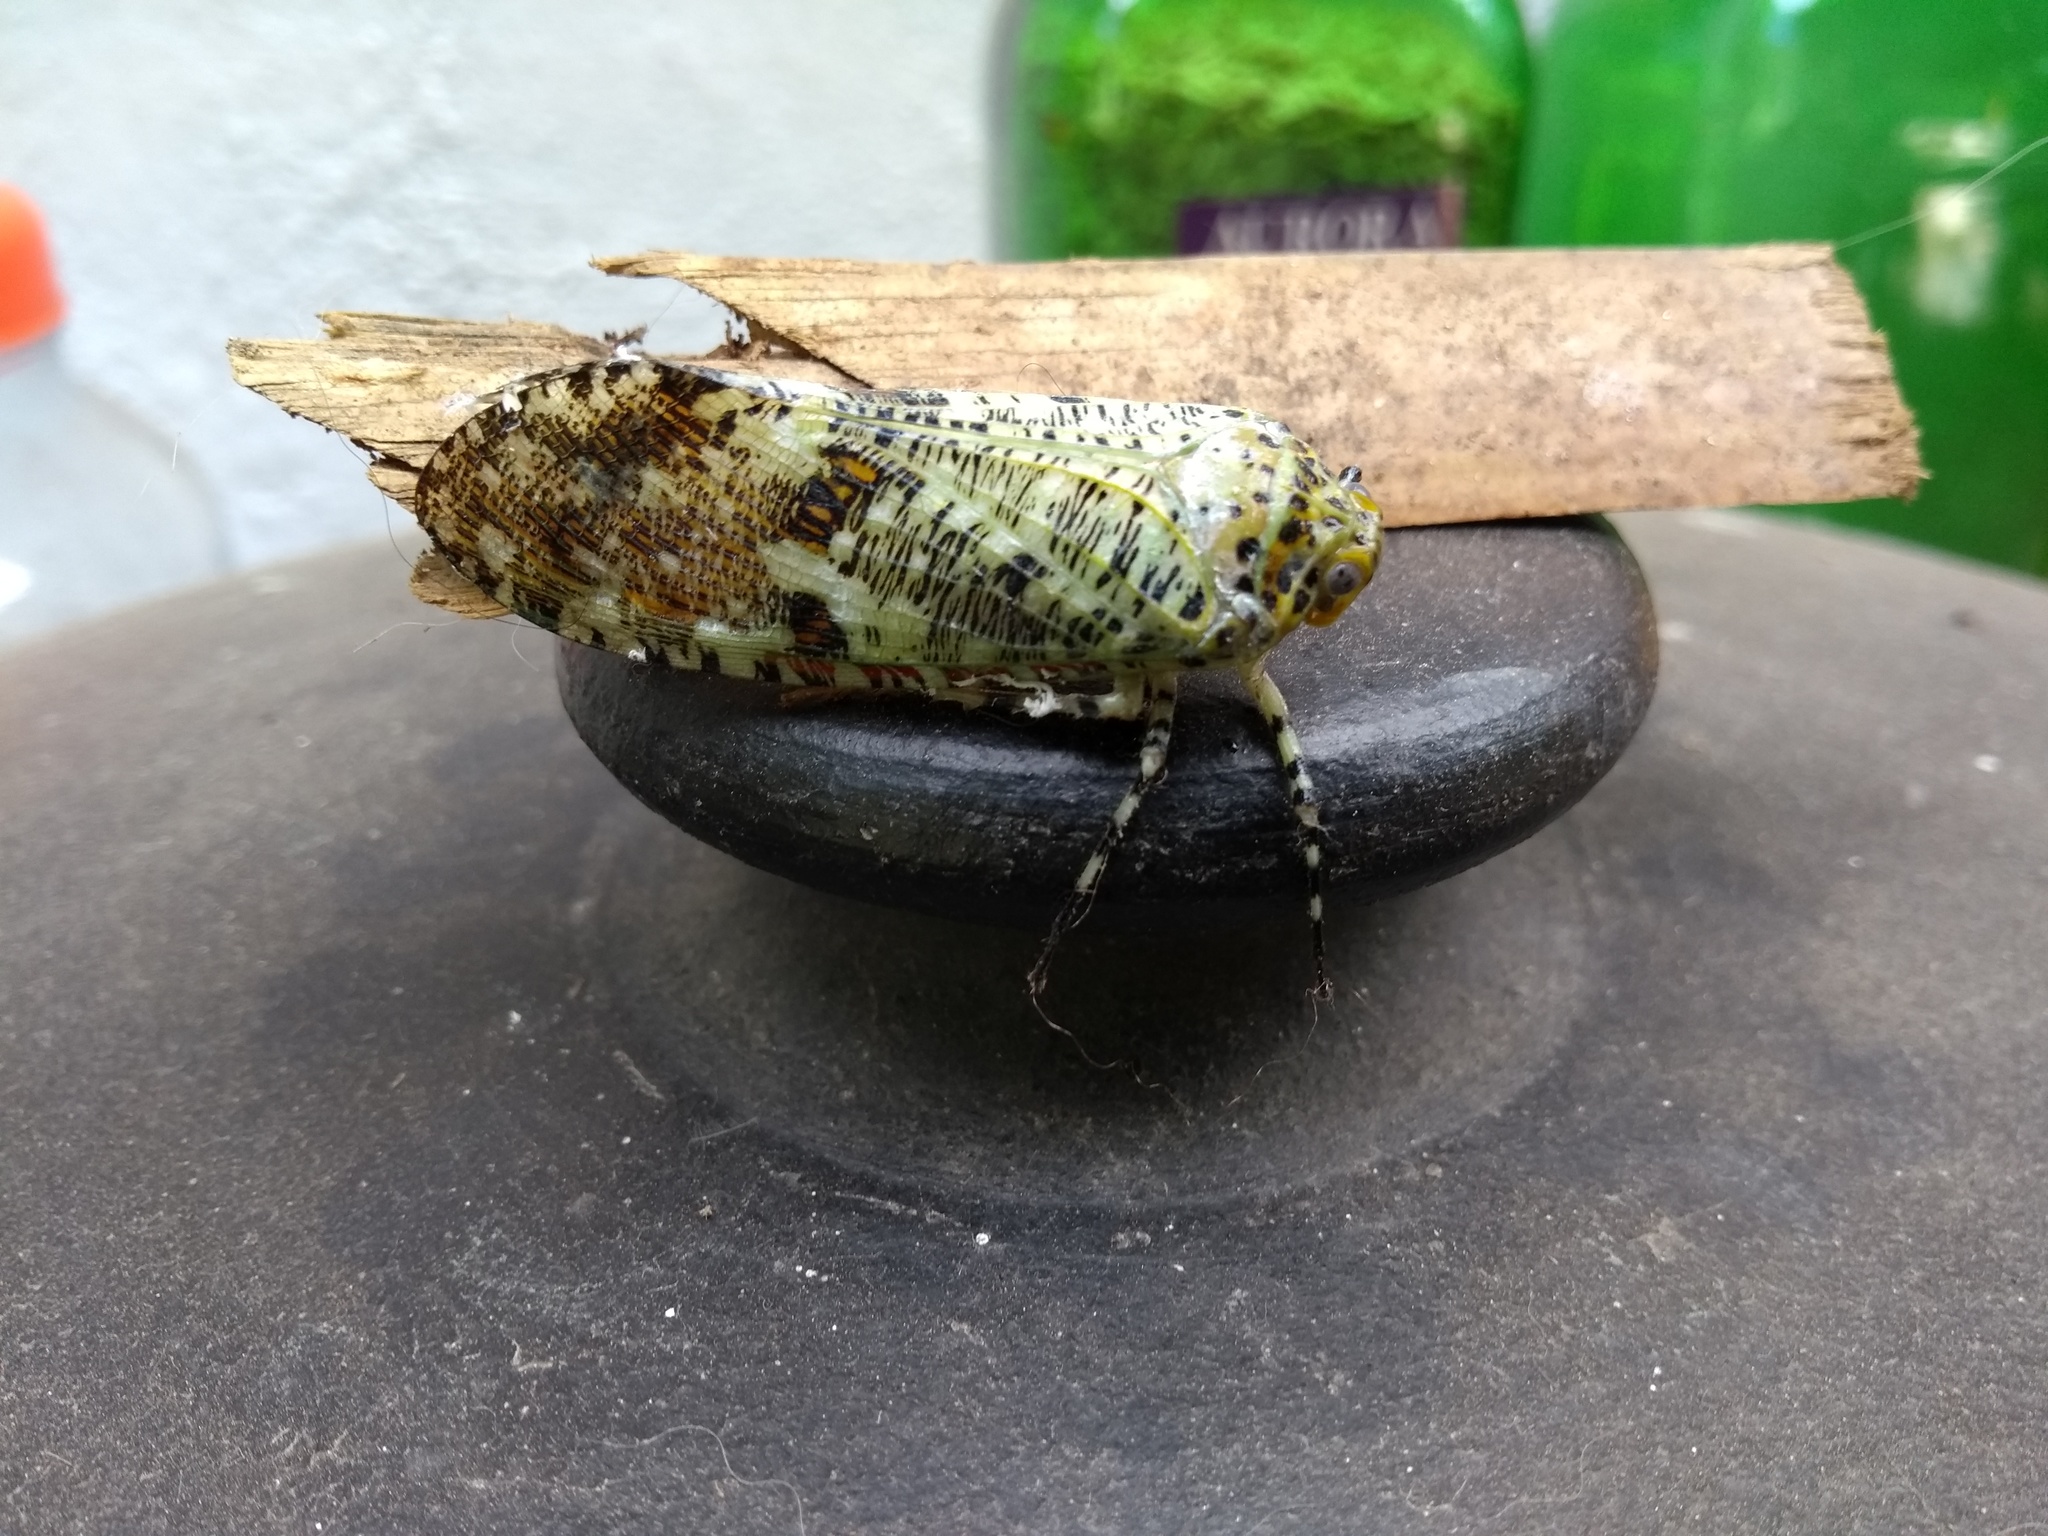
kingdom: Animalia
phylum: Arthropoda
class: Insecta
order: Hemiptera
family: Fulgoridae
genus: Phenax
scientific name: Phenax variegata
